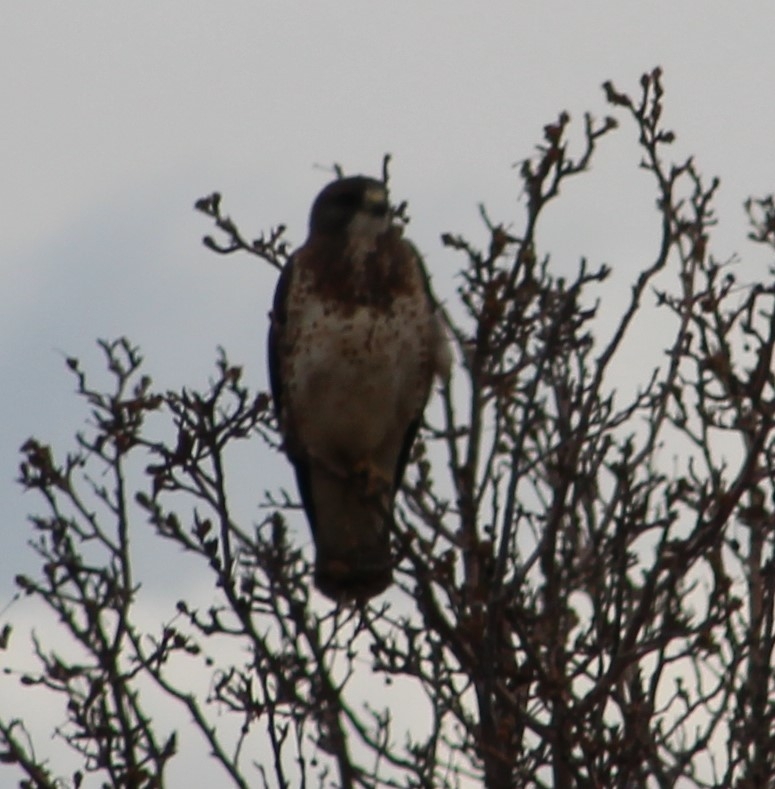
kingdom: Animalia
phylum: Chordata
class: Aves
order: Accipitriformes
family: Accipitridae
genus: Buteo
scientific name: Buteo swainsoni
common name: Swainson's hawk
